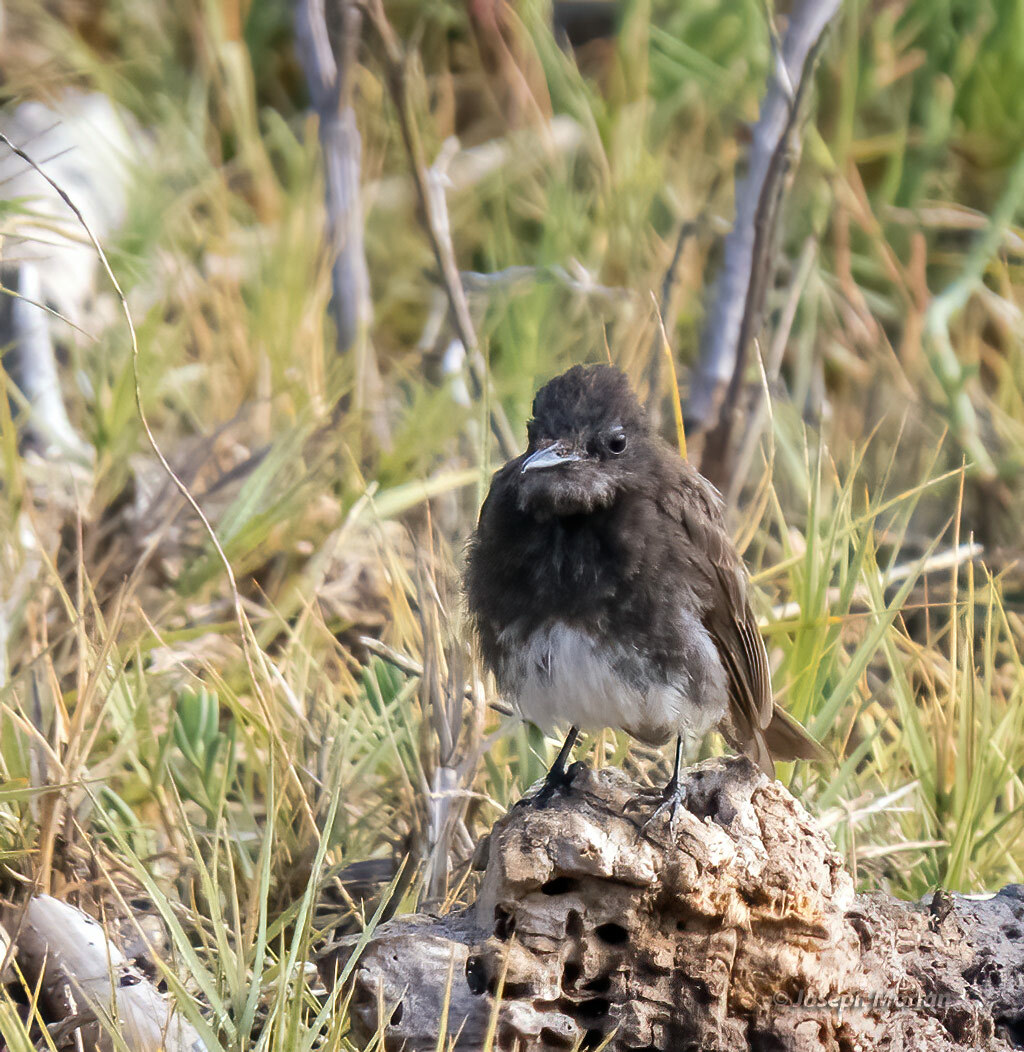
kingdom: Animalia
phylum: Chordata
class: Aves
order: Passeriformes
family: Tyrannidae
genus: Sayornis
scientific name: Sayornis nigricans
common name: Black phoebe
